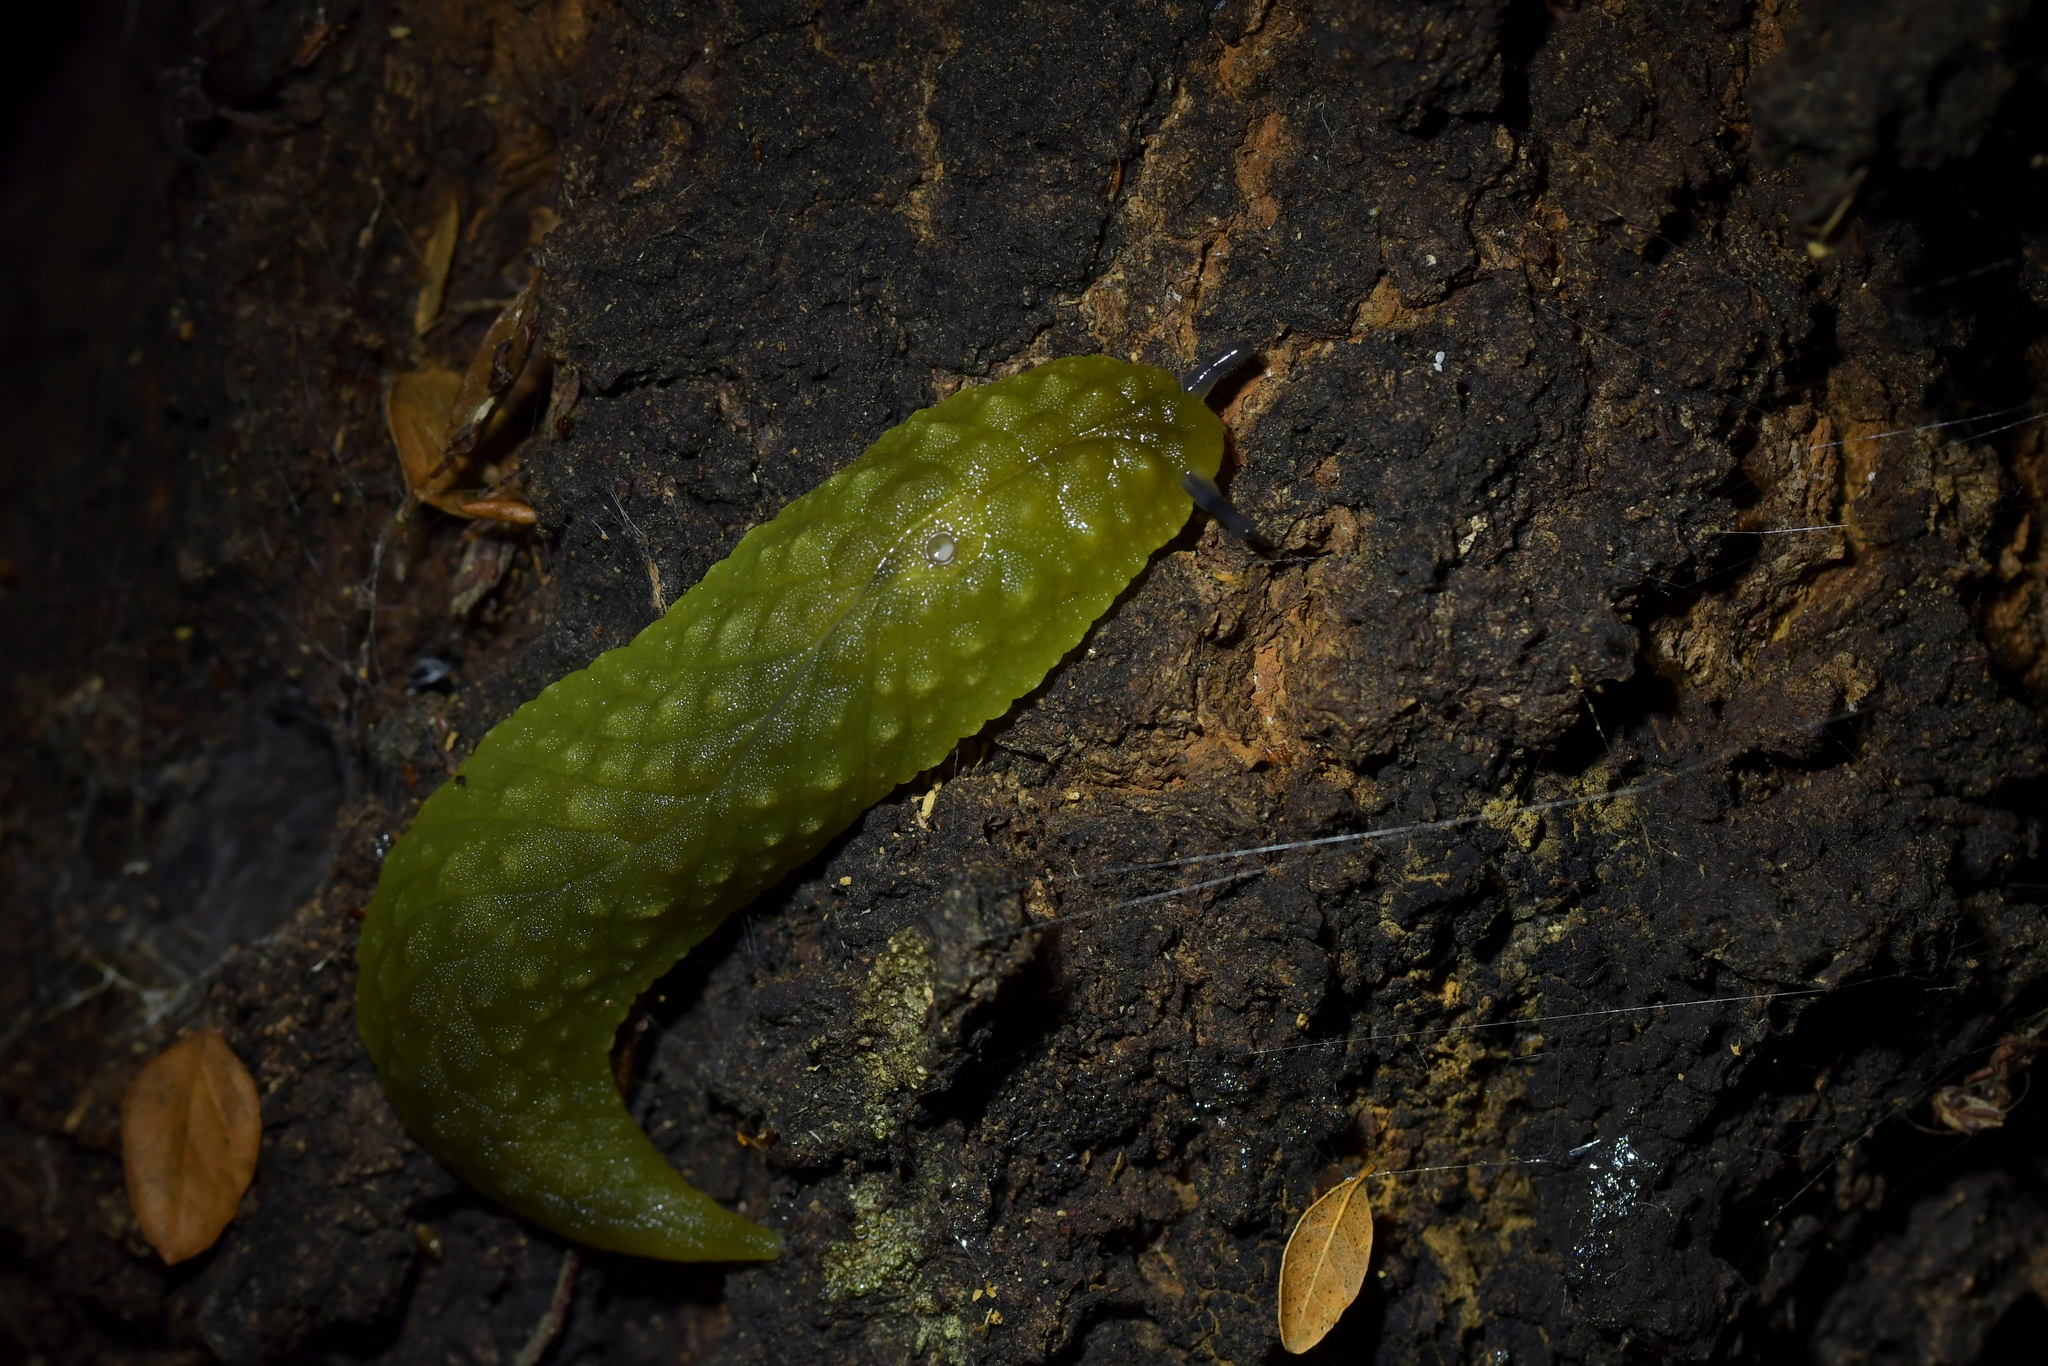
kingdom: Animalia
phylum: Mollusca
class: Gastropoda
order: Stylommatophora
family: Athoracophoridae
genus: Athoracophorus
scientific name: Athoracophorus papillatus
